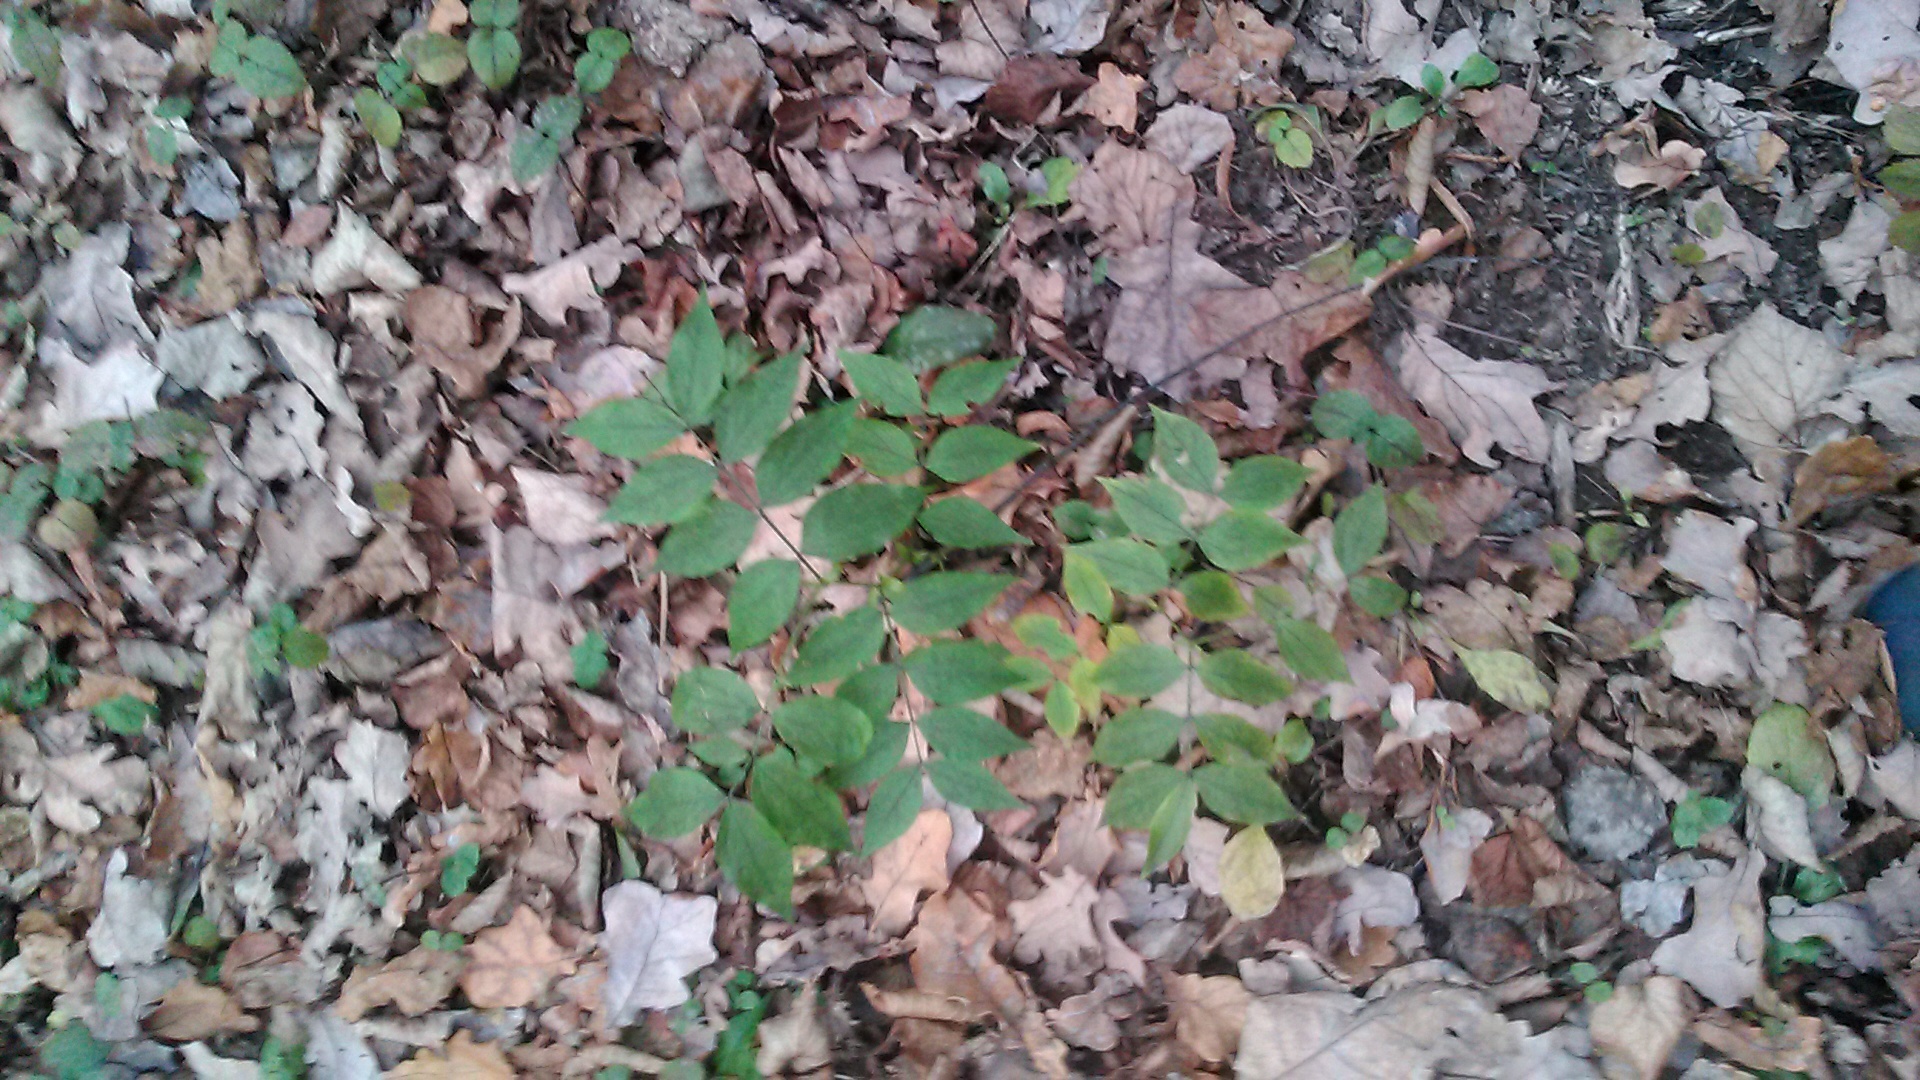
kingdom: Plantae
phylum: Tracheophyta
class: Magnoliopsida
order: Fabales
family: Fabaceae
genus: Lathyrus
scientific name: Lathyrus vernus
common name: Spring pea
